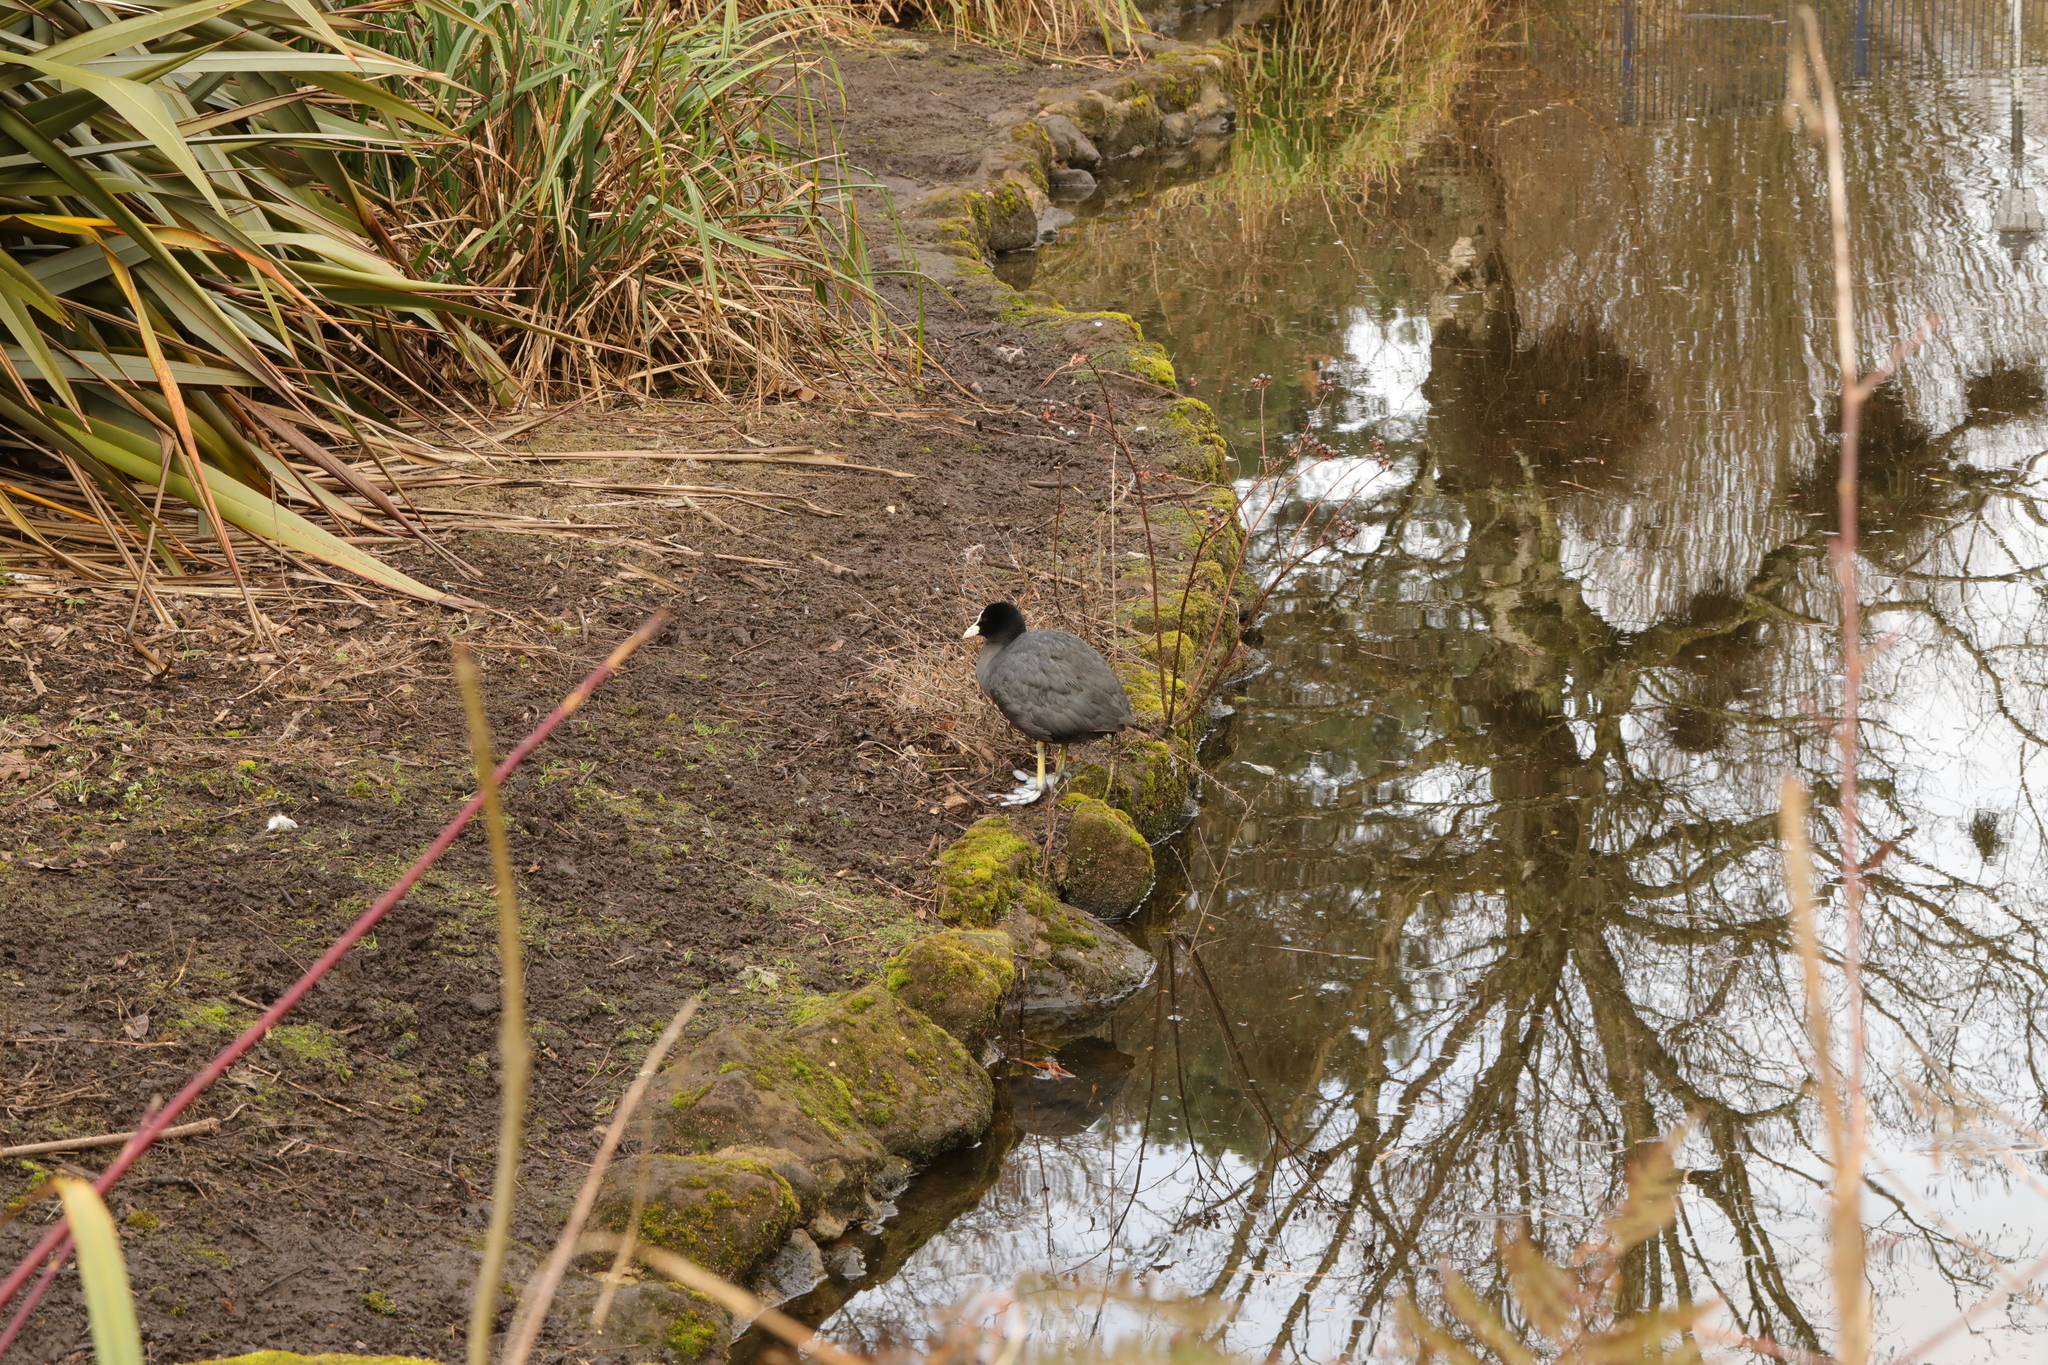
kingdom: Animalia
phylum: Chordata
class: Aves
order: Gruiformes
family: Rallidae
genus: Fulica
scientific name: Fulica atra
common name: Eurasian coot
